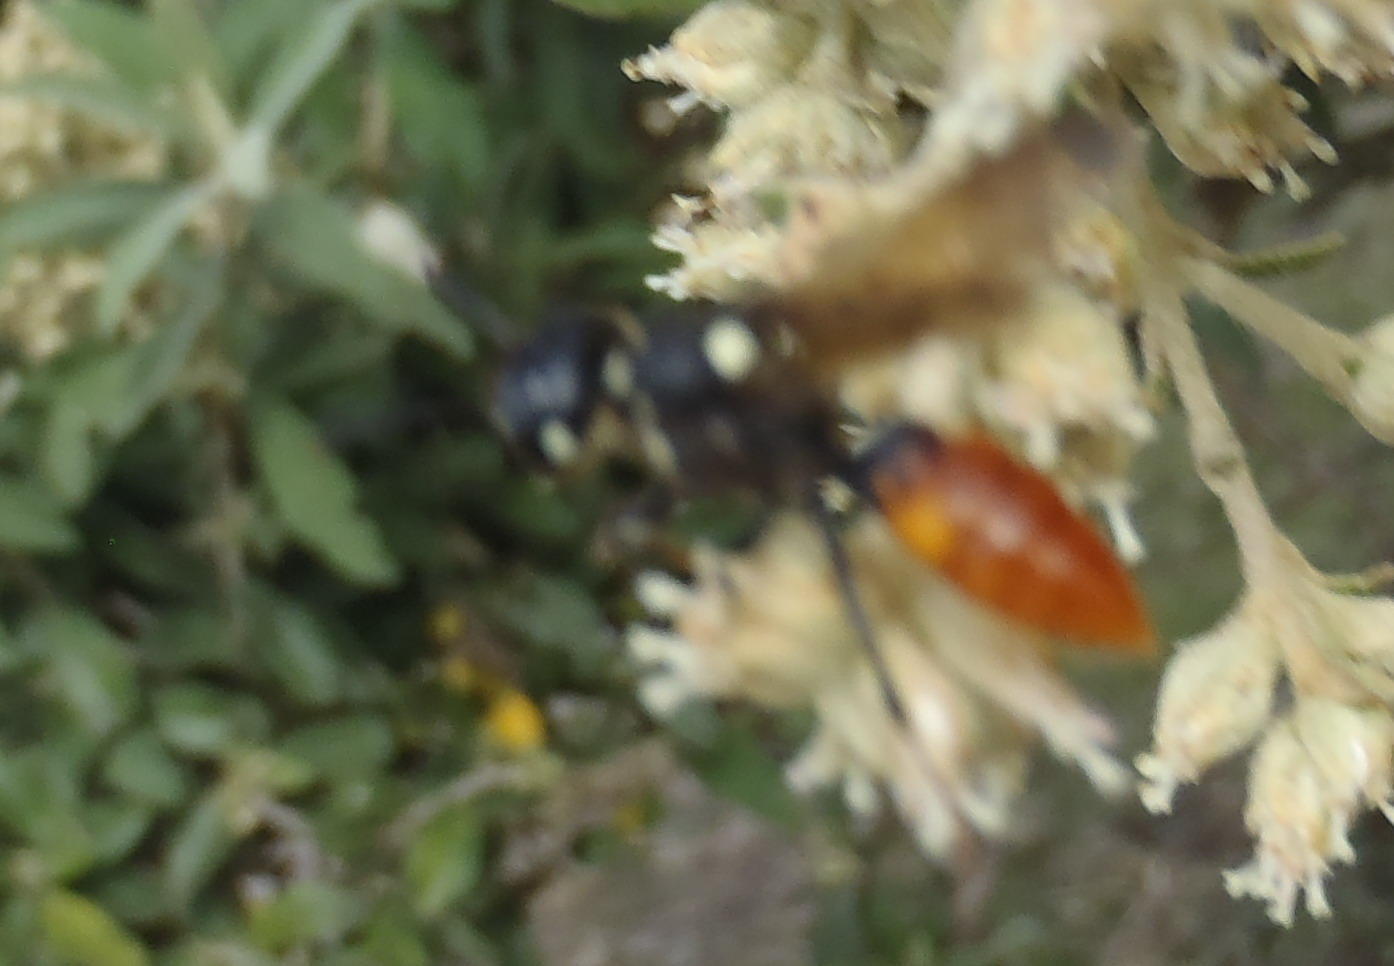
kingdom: Animalia
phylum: Arthropoda
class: Insecta
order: Hymenoptera
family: Crabronidae
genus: Philanthus
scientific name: Philanthus loeflingi
